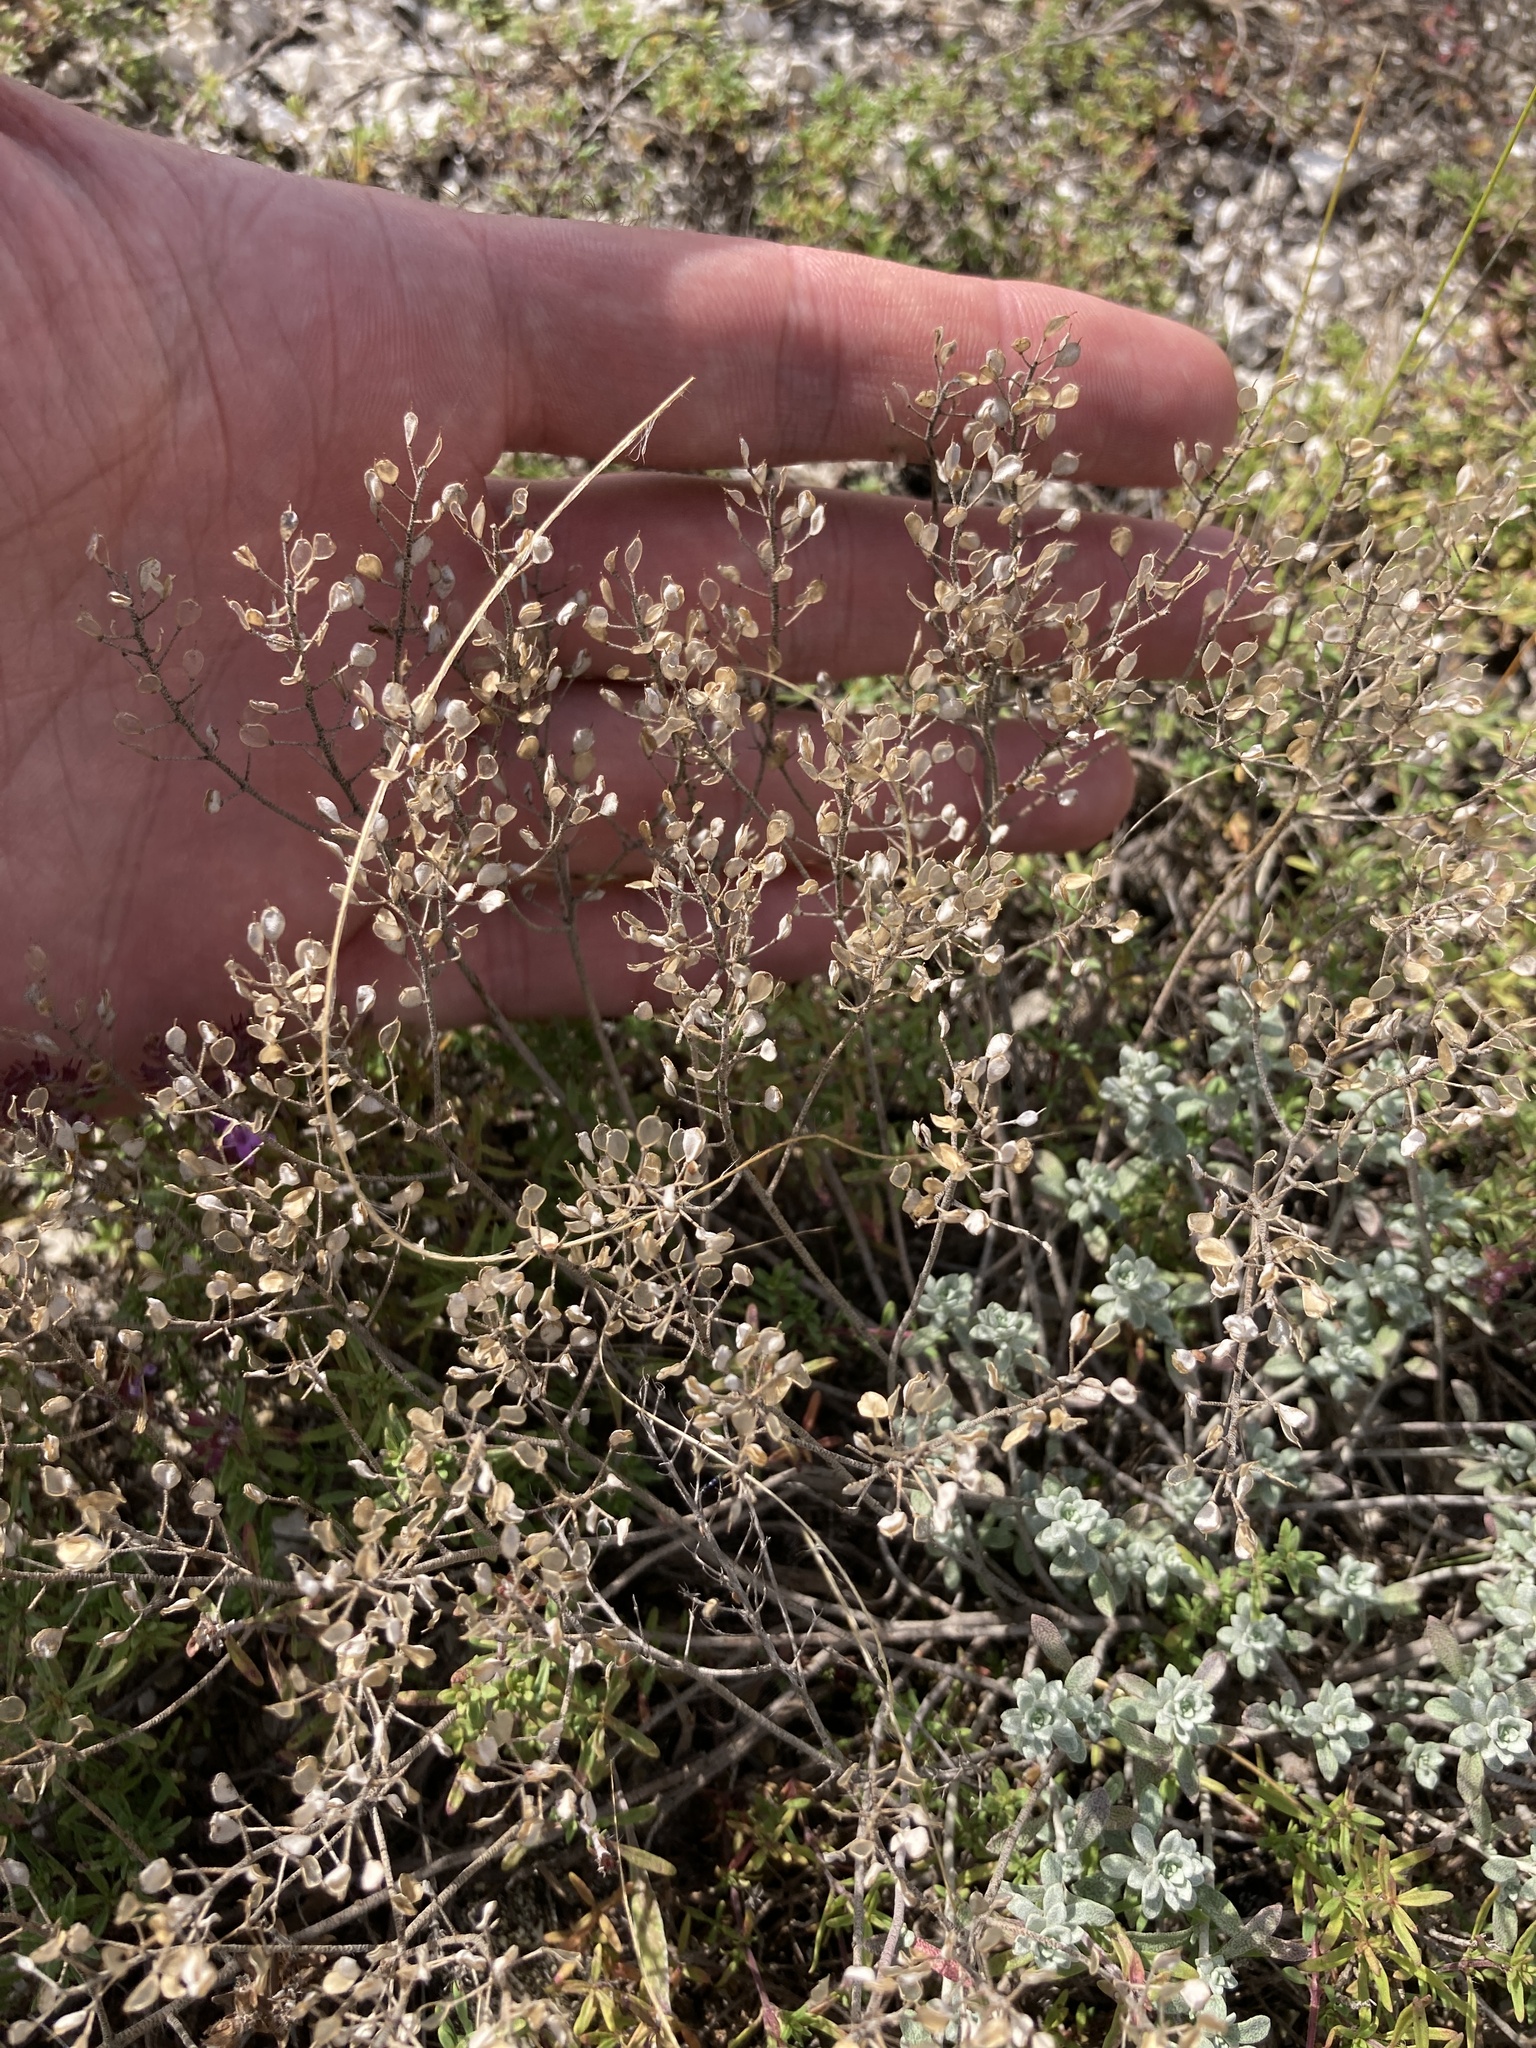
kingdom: Plantae
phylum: Tracheophyta
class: Magnoliopsida
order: Brassicales
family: Brassicaceae
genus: Odontarrhena
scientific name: Odontarrhena tortuosa
